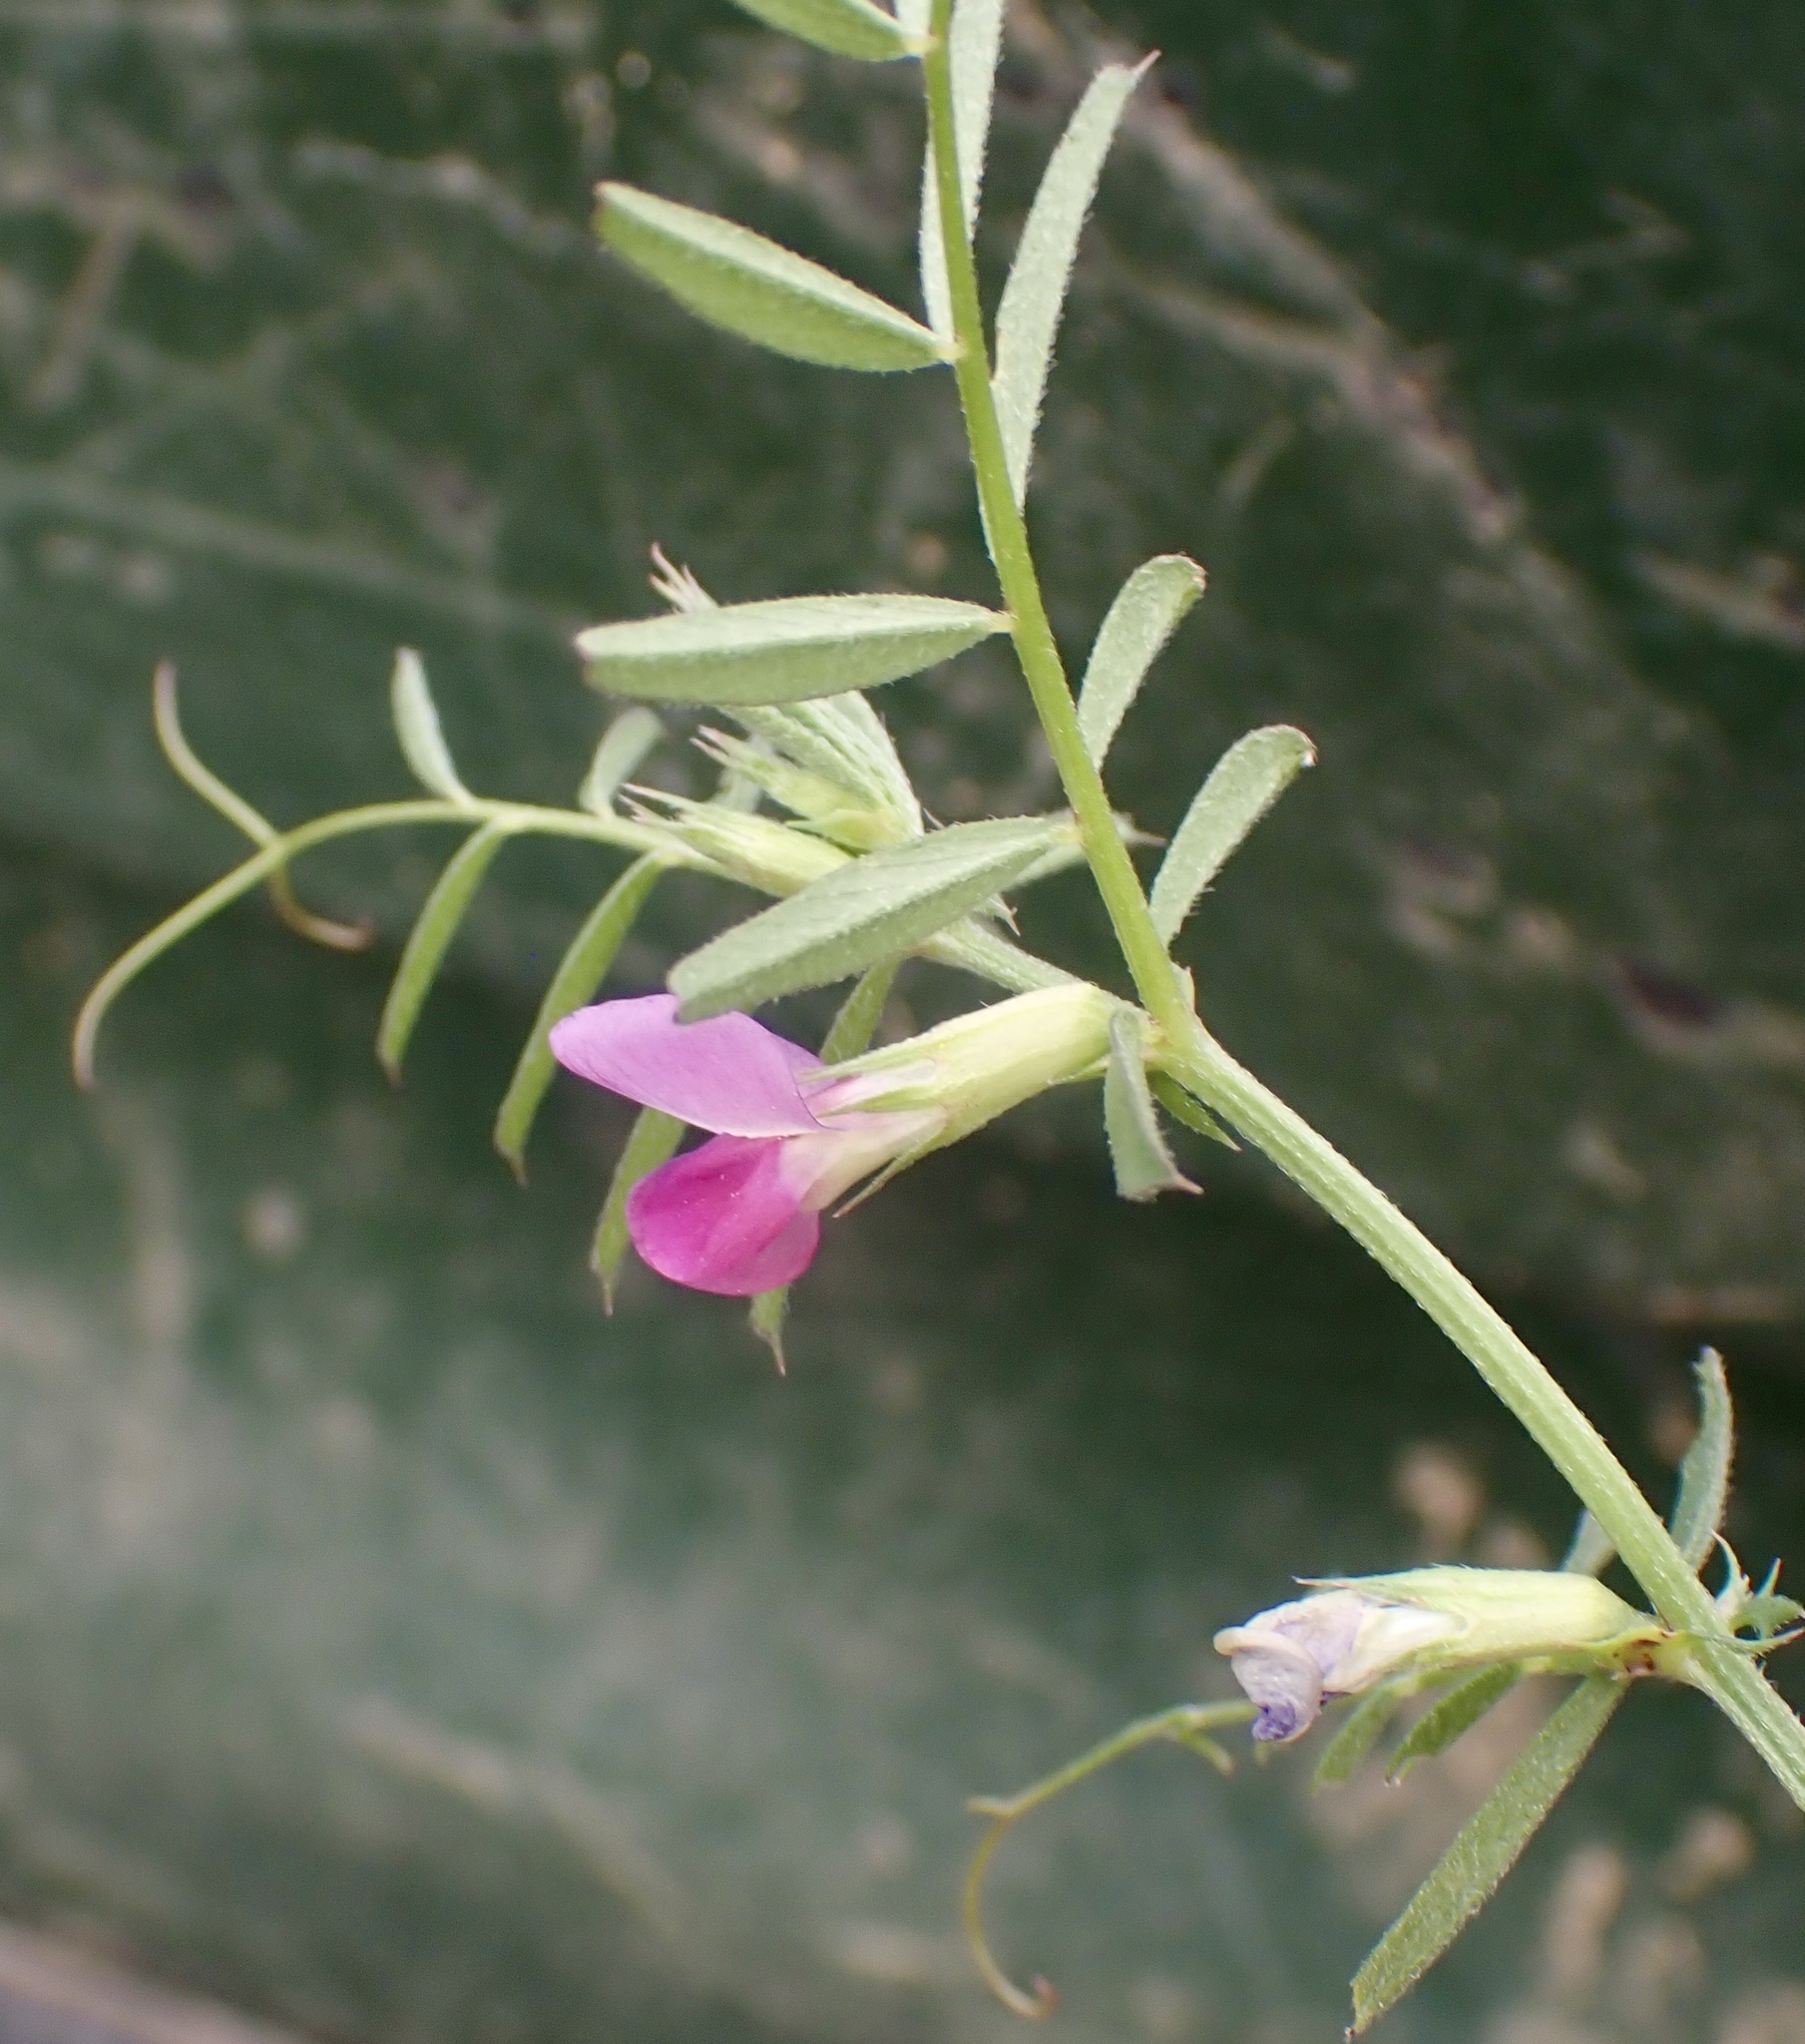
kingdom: Plantae
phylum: Tracheophyta
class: Magnoliopsida
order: Fabales
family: Fabaceae
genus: Vicia
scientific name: Vicia sativa
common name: Garden vetch
